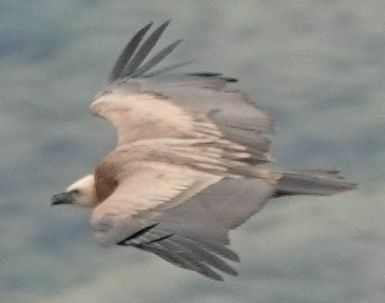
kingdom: Animalia
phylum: Chordata
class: Aves
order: Accipitriformes
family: Accipitridae
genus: Gyps
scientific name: Gyps fulvus
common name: Griffon vulture
